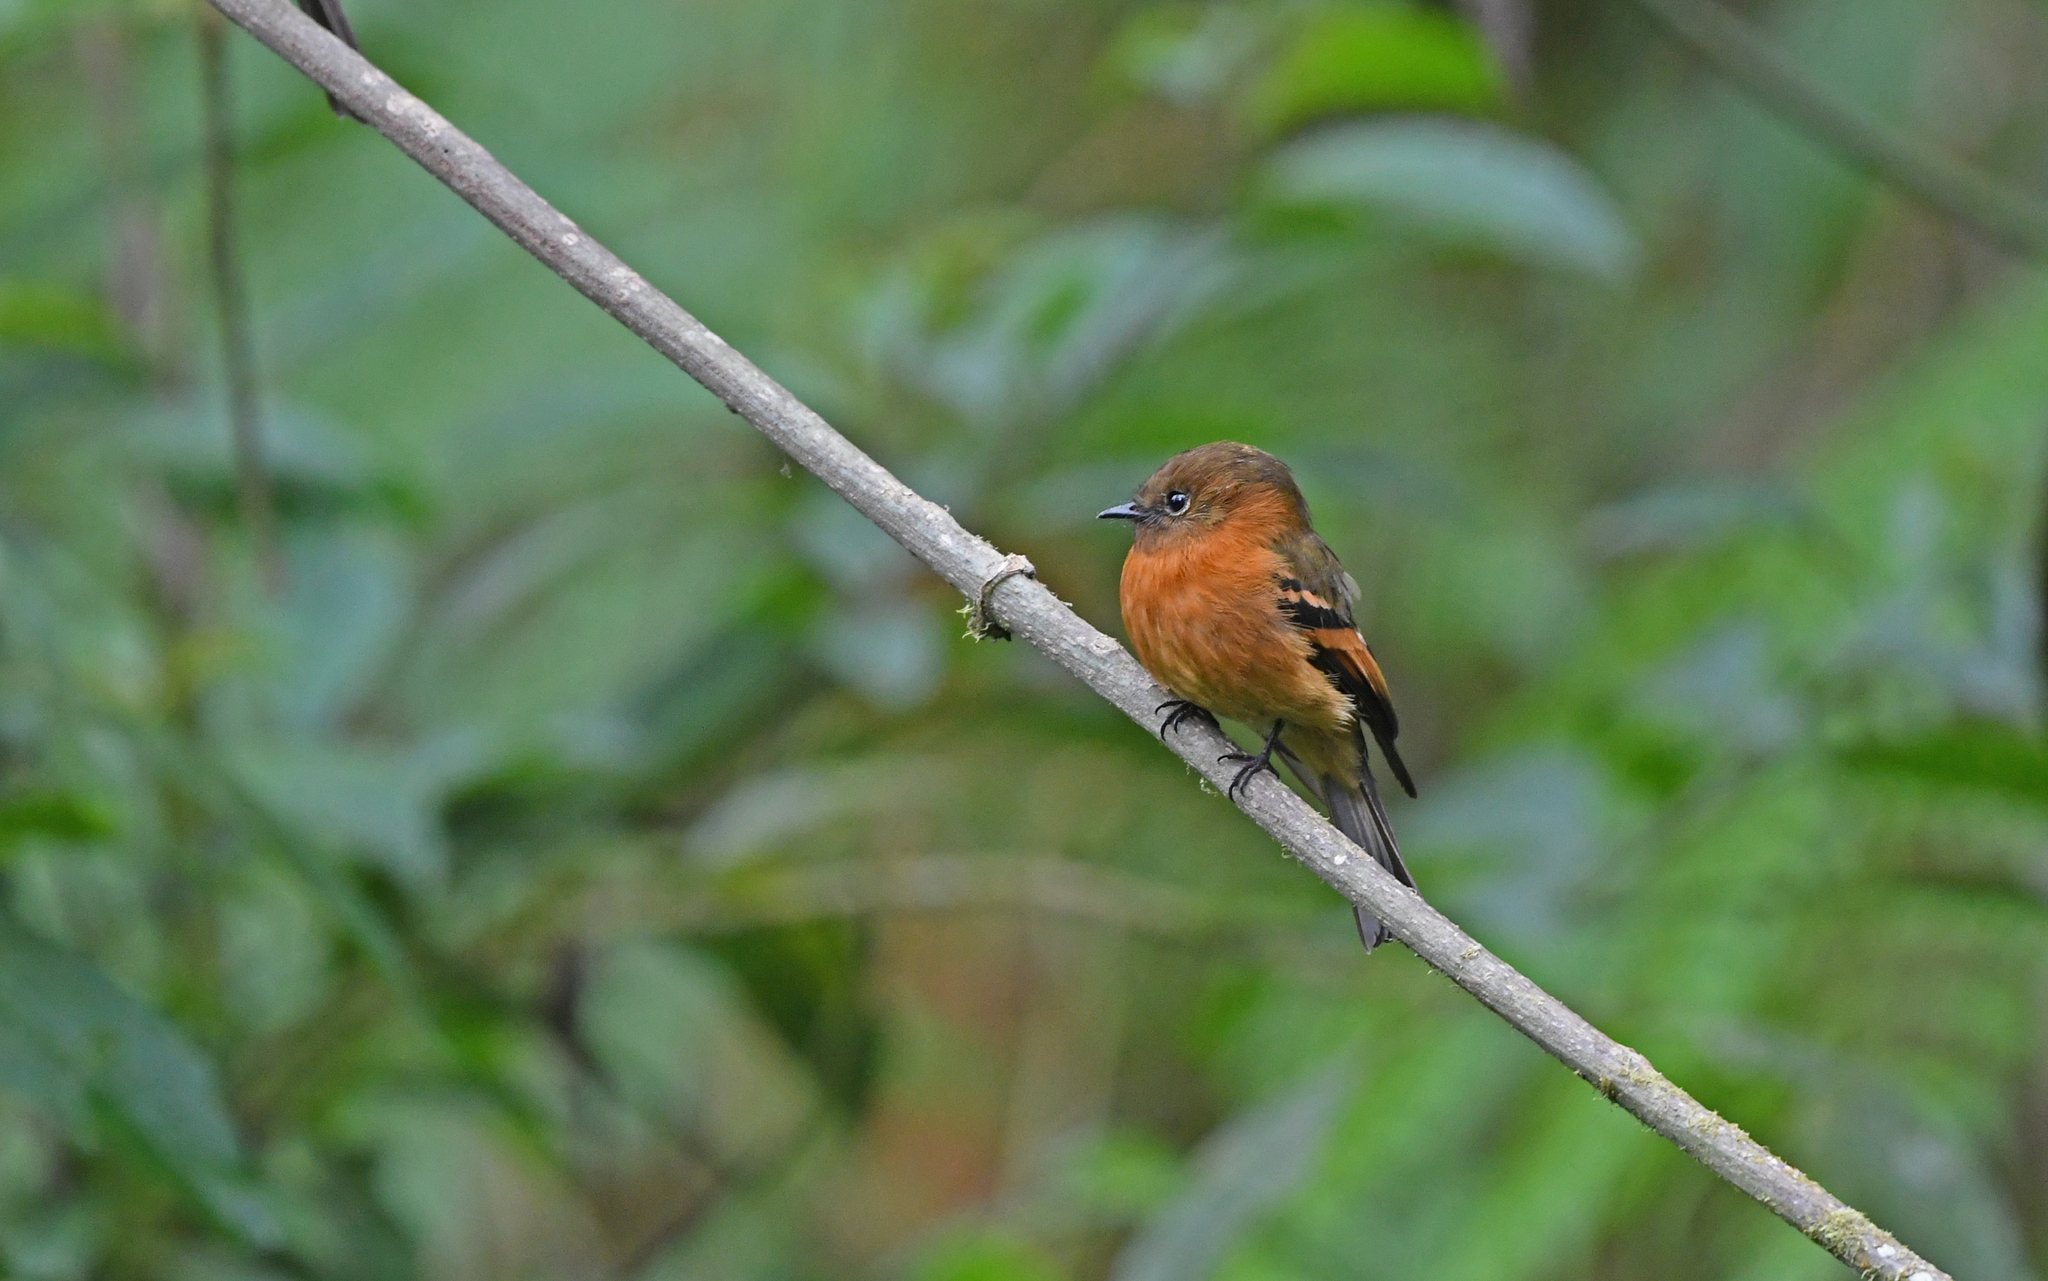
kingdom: Animalia
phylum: Chordata
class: Aves
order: Passeriformes
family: Tyrannidae
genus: Pyrrhomyias
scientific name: Pyrrhomyias cinnamomeus
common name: Cinnamon flycatcher
